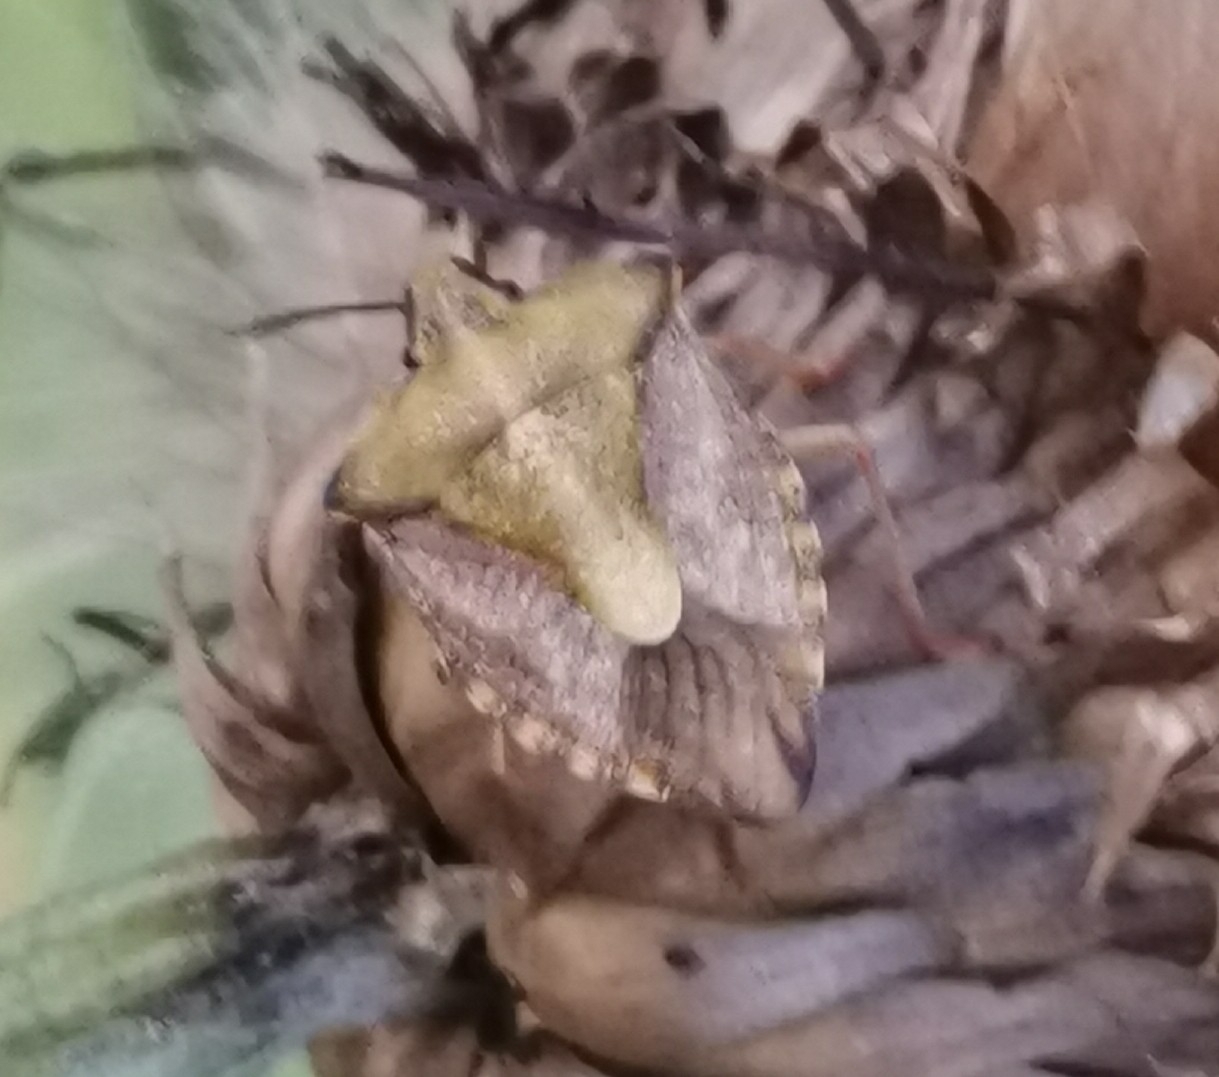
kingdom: Animalia
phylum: Arthropoda
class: Insecta
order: Hemiptera
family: Pentatomidae
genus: Carpocoris
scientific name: Carpocoris purpureipennis
